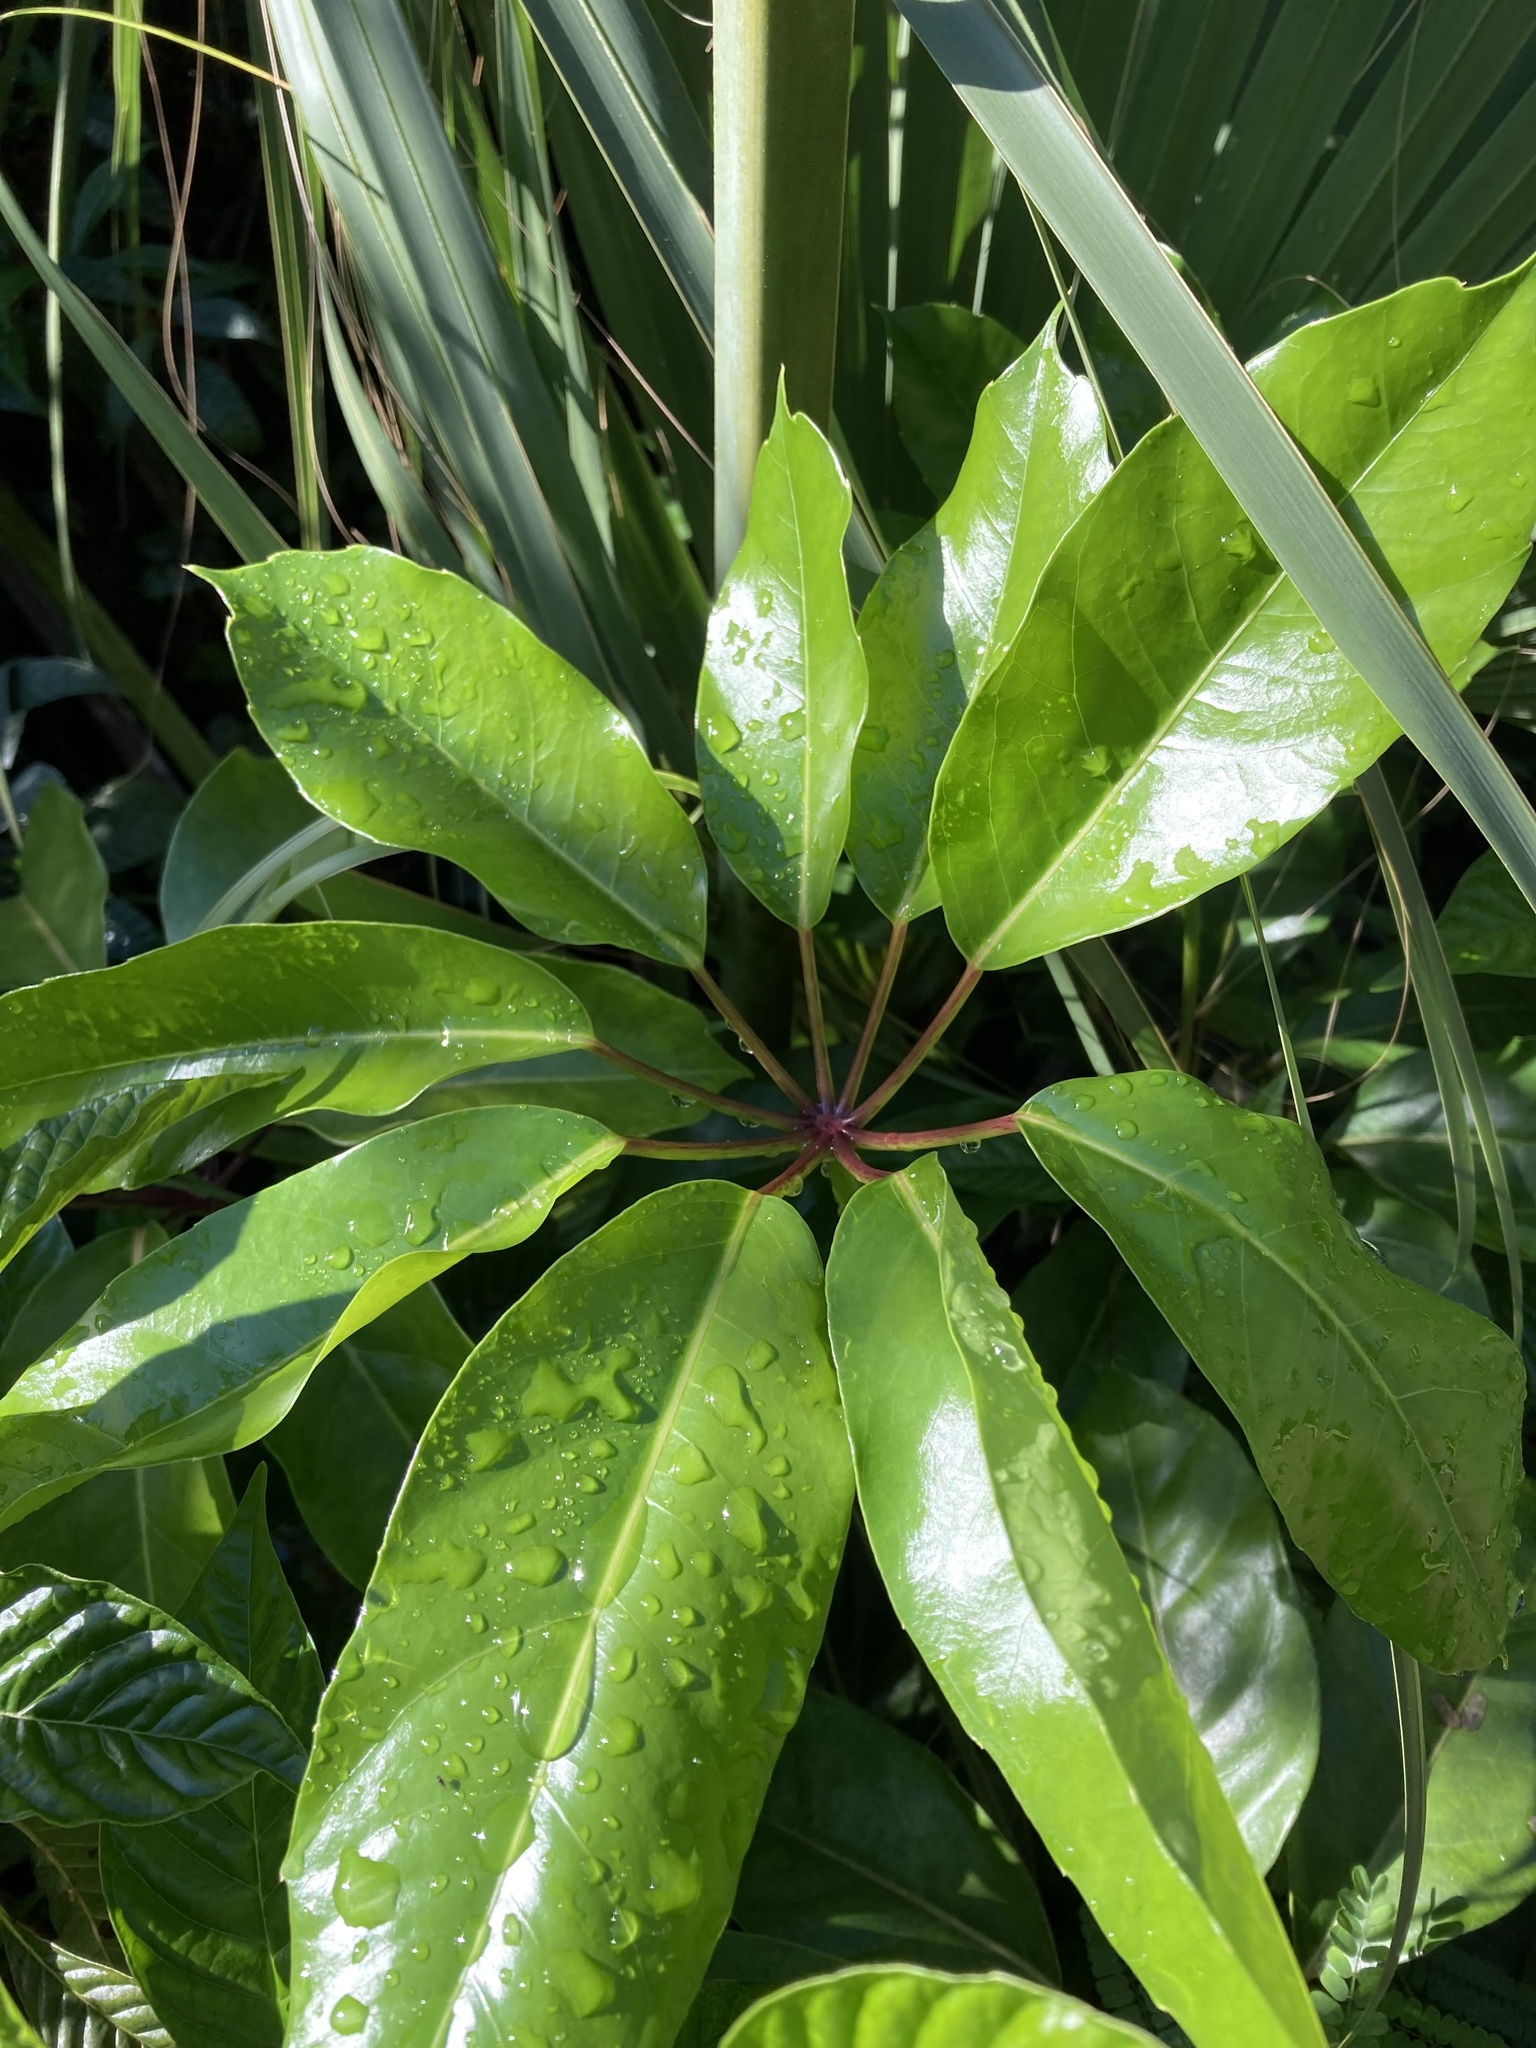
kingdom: Plantae
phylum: Tracheophyta
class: Magnoliopsida
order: Apiales
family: Araliaceae
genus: Heptapleurum
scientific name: Heptapleurum actinophyllum
